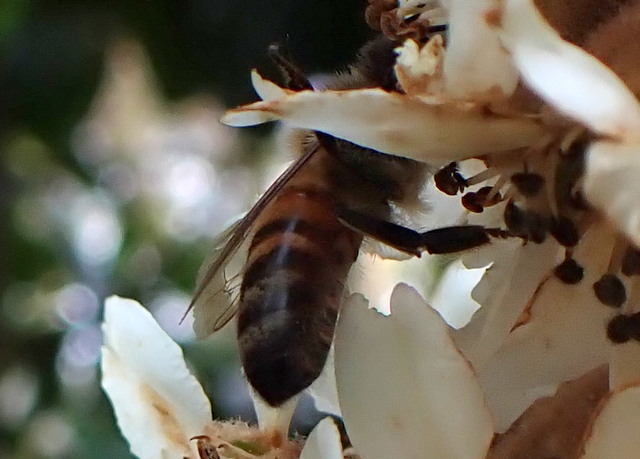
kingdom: Animalia
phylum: Arthropoda
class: Insecta
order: Hymenoptera
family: Apidae
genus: Apis
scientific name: Apis mellifera
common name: Honey bee
